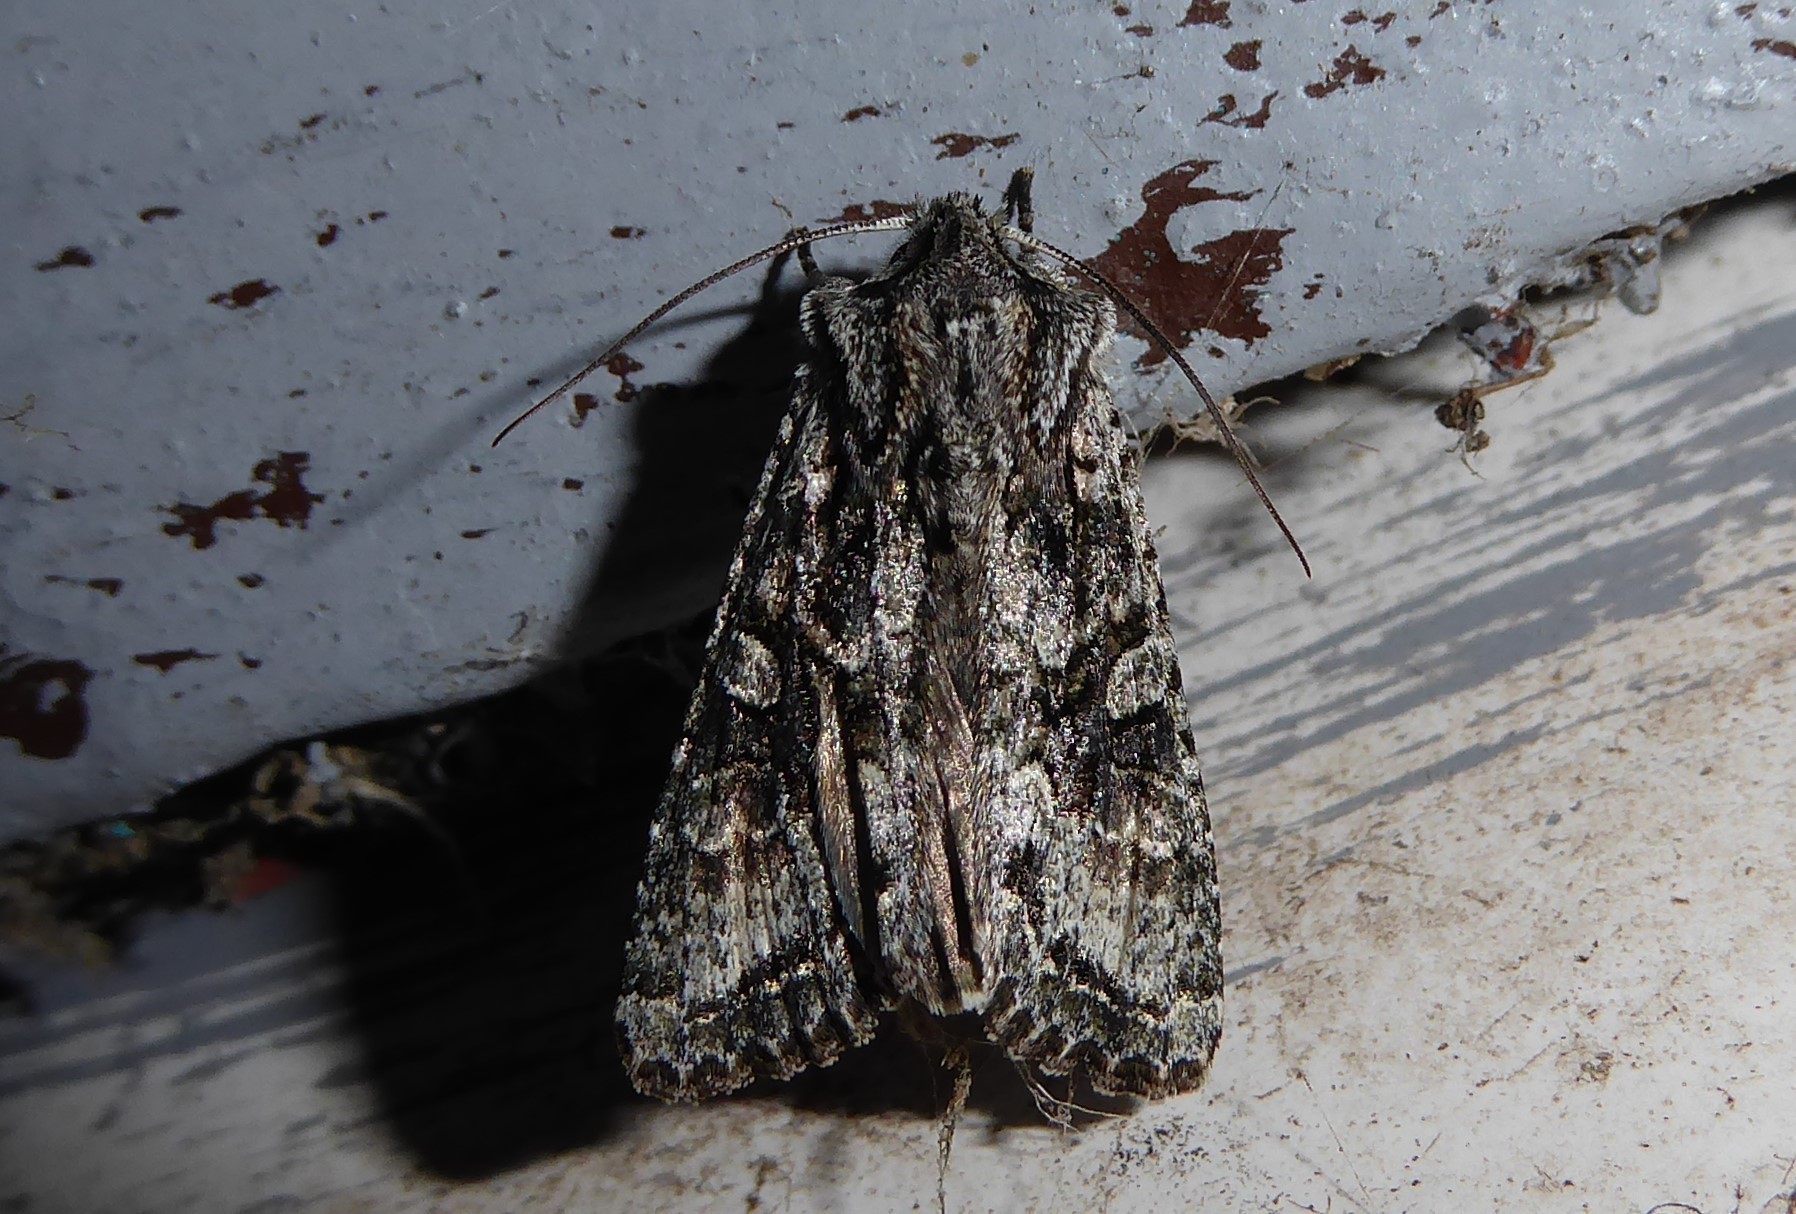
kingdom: Animalia
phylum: Arthropoda
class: Insecta
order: Lepidoptera
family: Noctuidae
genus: Ichneutica
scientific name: Ichneutica mutans
